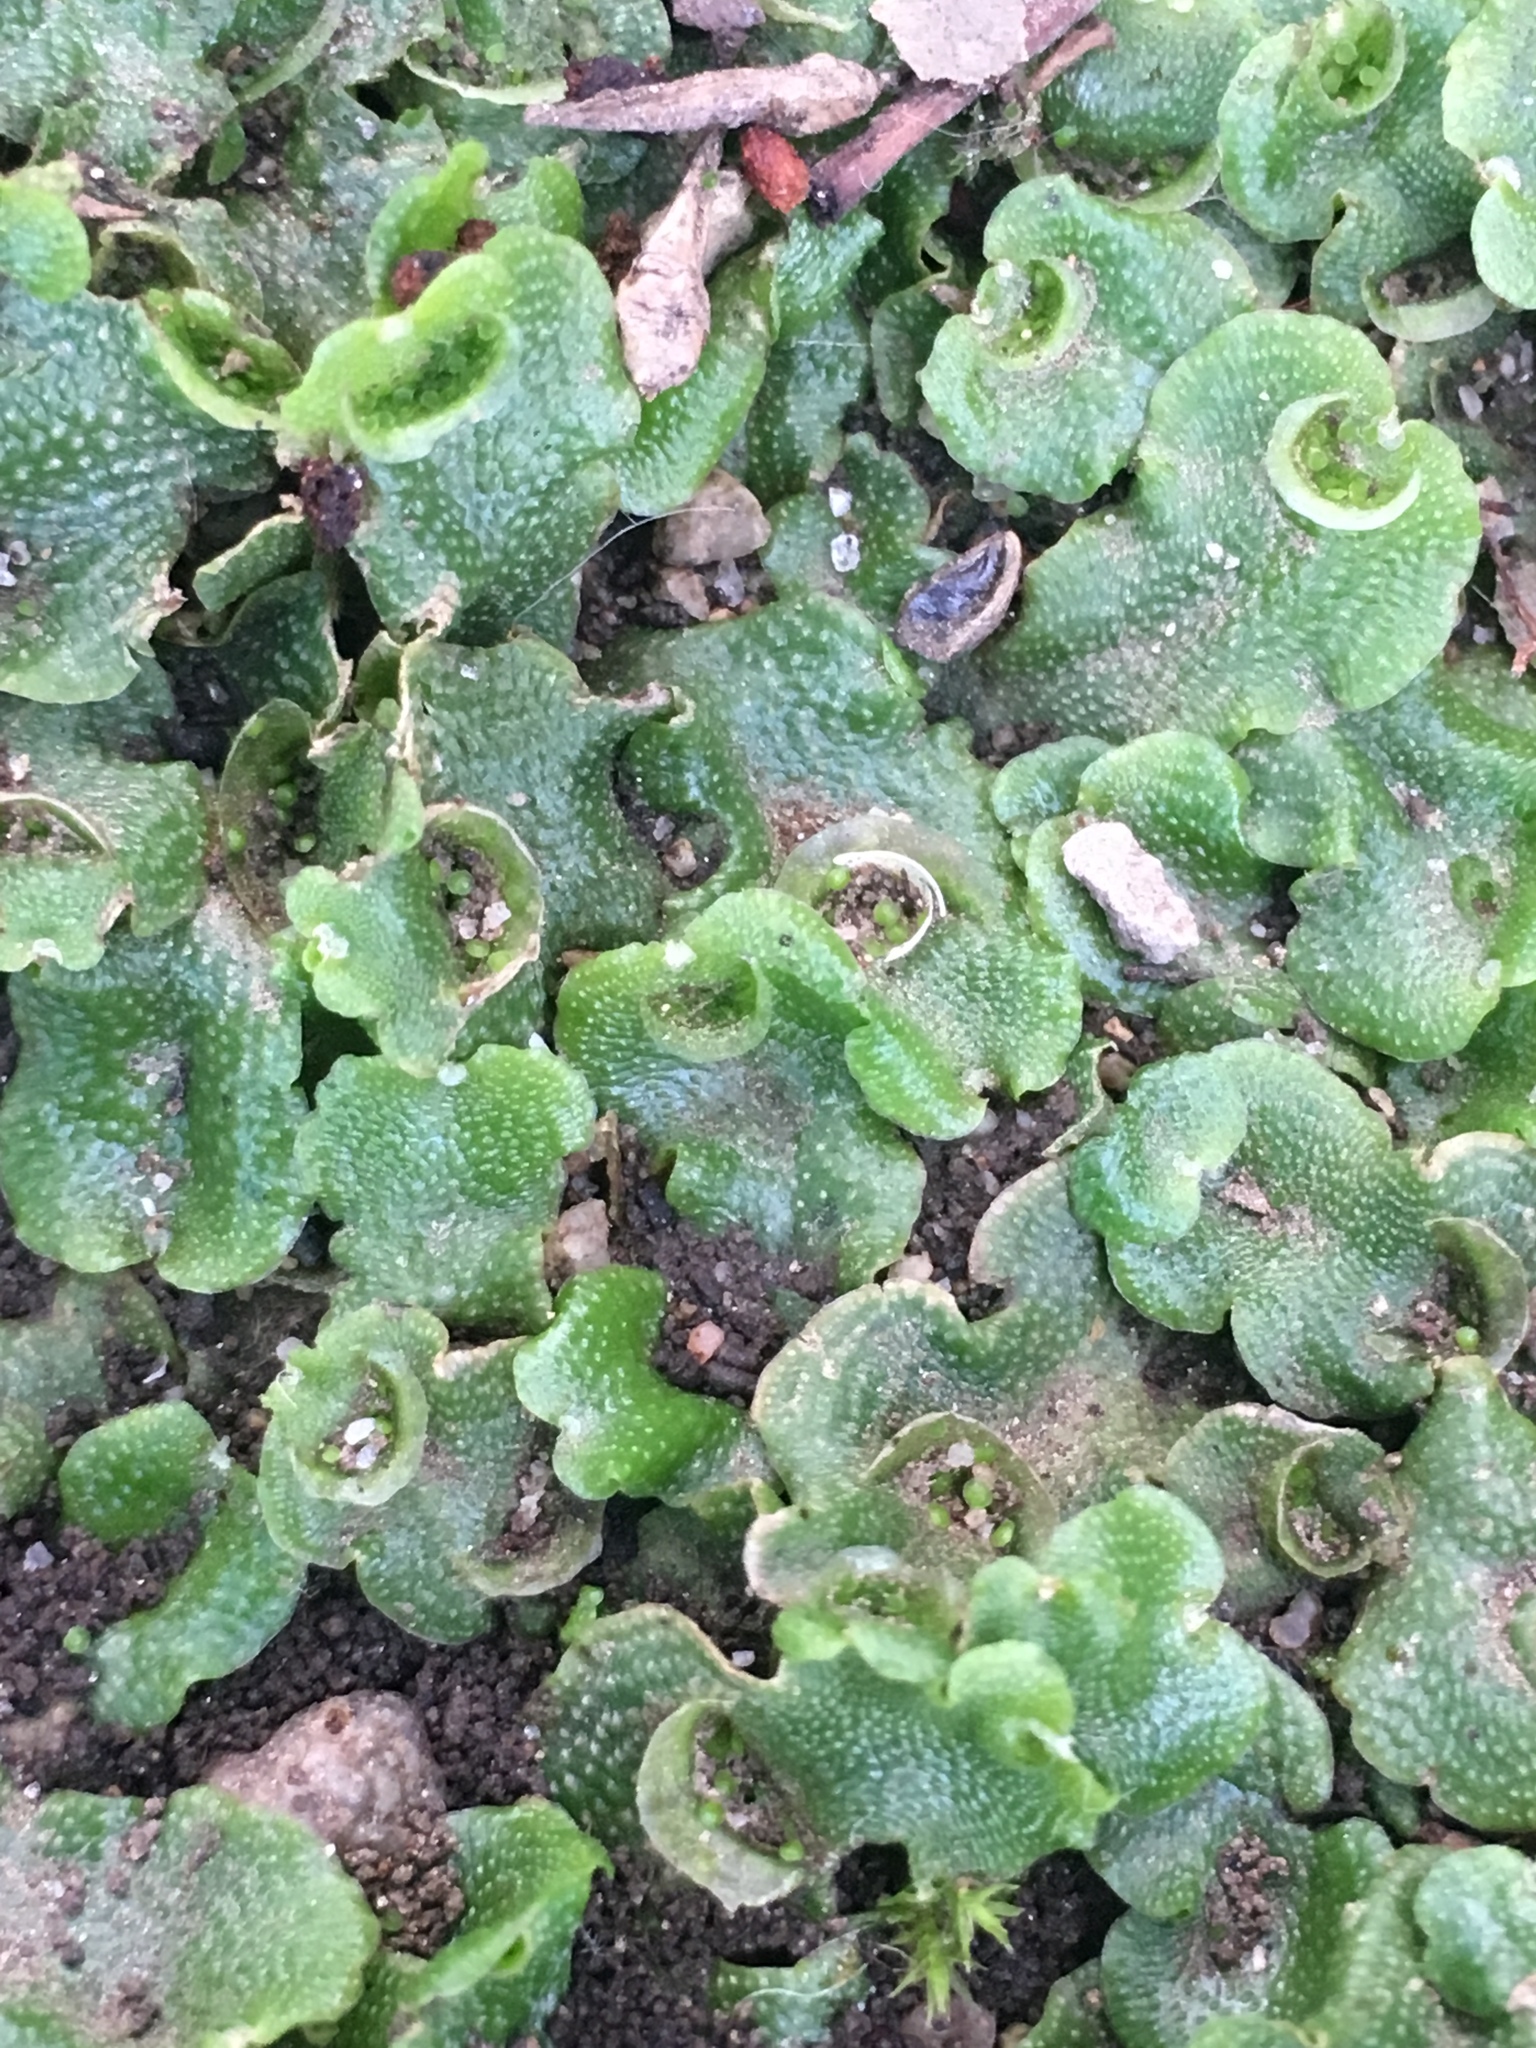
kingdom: Plantae
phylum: Marchantiophyta
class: Marchantiopsida
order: Lunulariales
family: Lunulariaceae
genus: Lunularia
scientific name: Lunularia cruciata
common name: Crescent-cup liverwort
